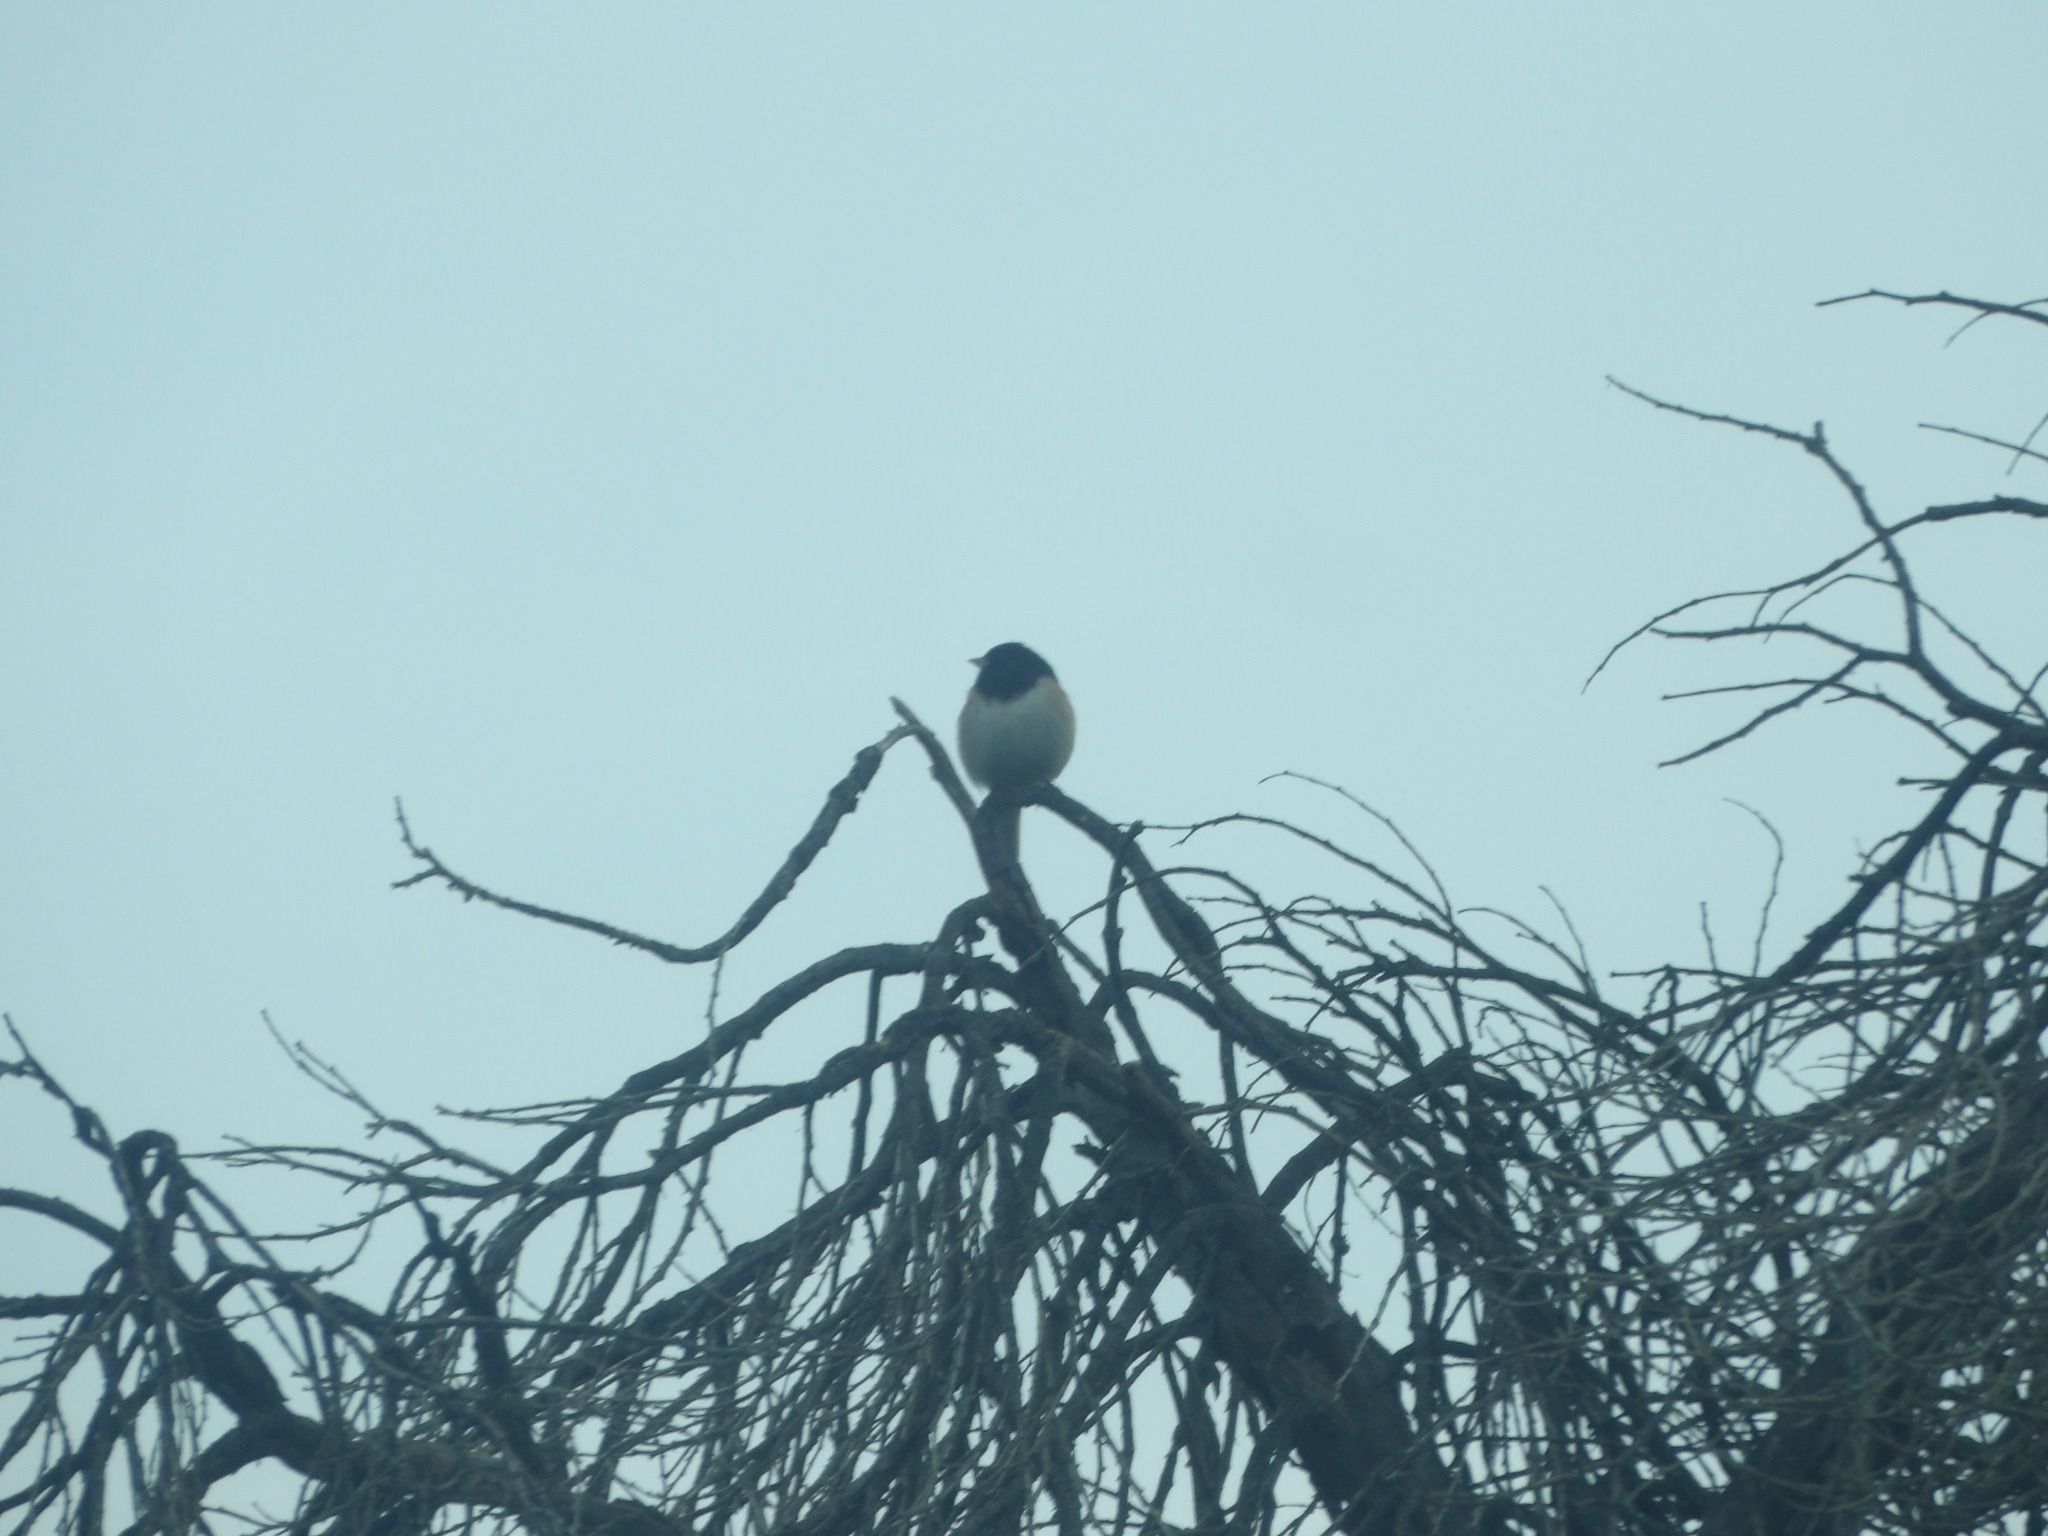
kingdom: Animalia
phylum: Chordata
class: Aves
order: Passeriformes
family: Passerellidae
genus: Junco
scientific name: Junco hyemalis
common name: Dark-eyed junco
